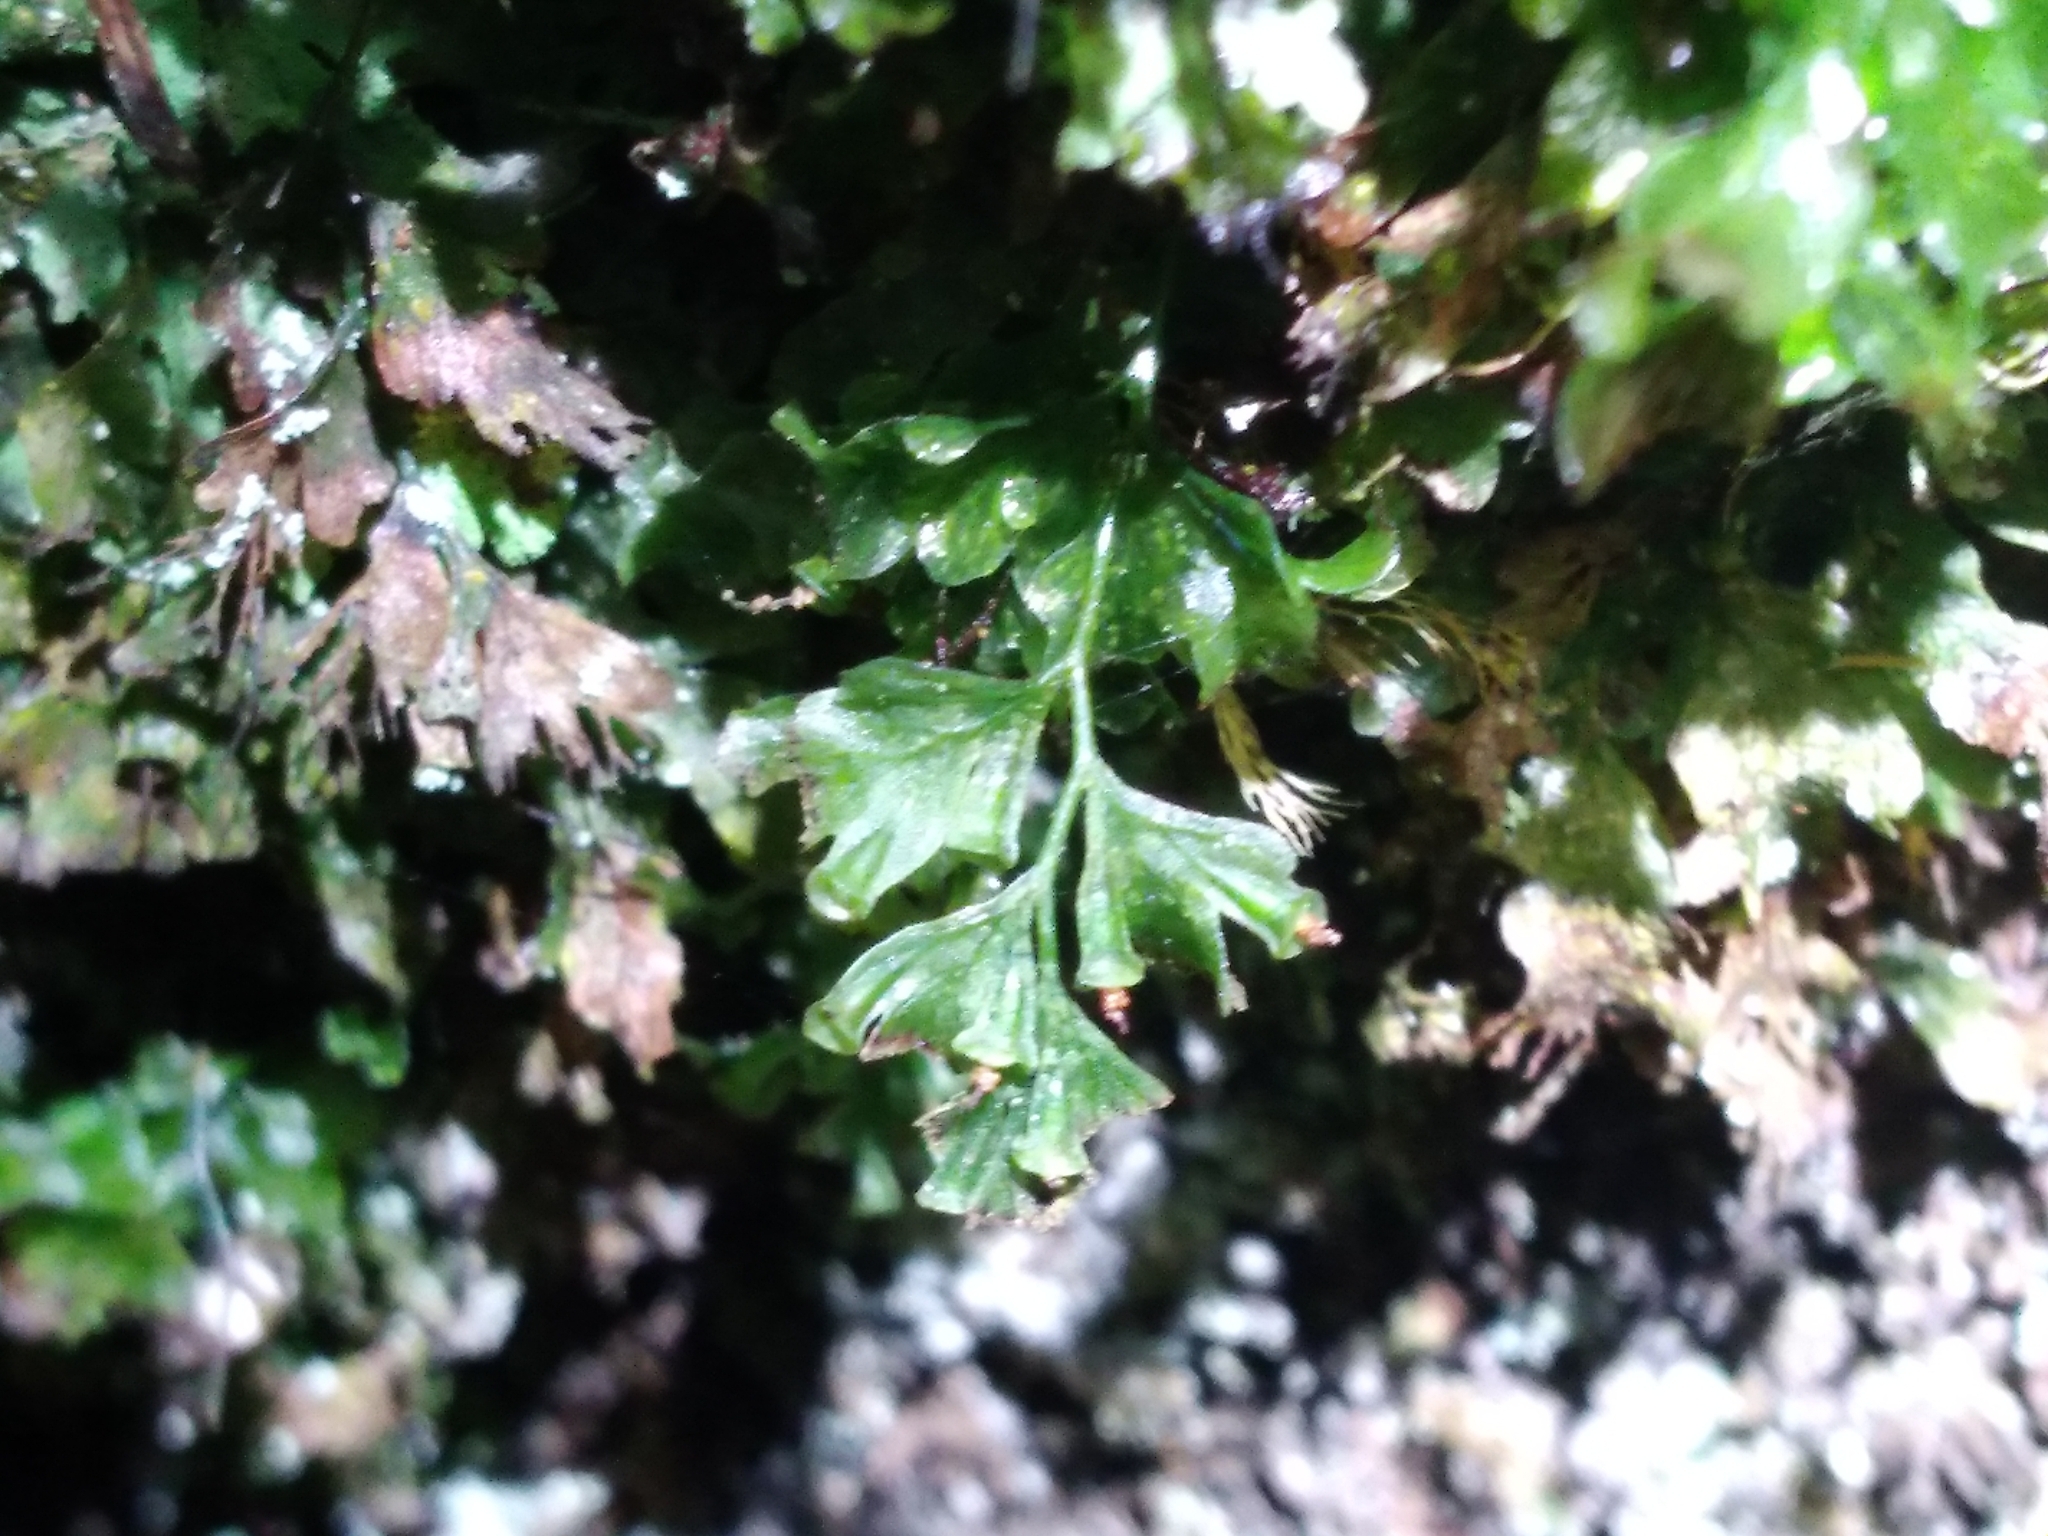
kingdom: Plantae
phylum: Tracheophyta
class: Polypodiopsida
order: Hymenophyllales
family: Hymenophyllaceae
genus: Polyphlebium
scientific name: Polyphlebium venosum
